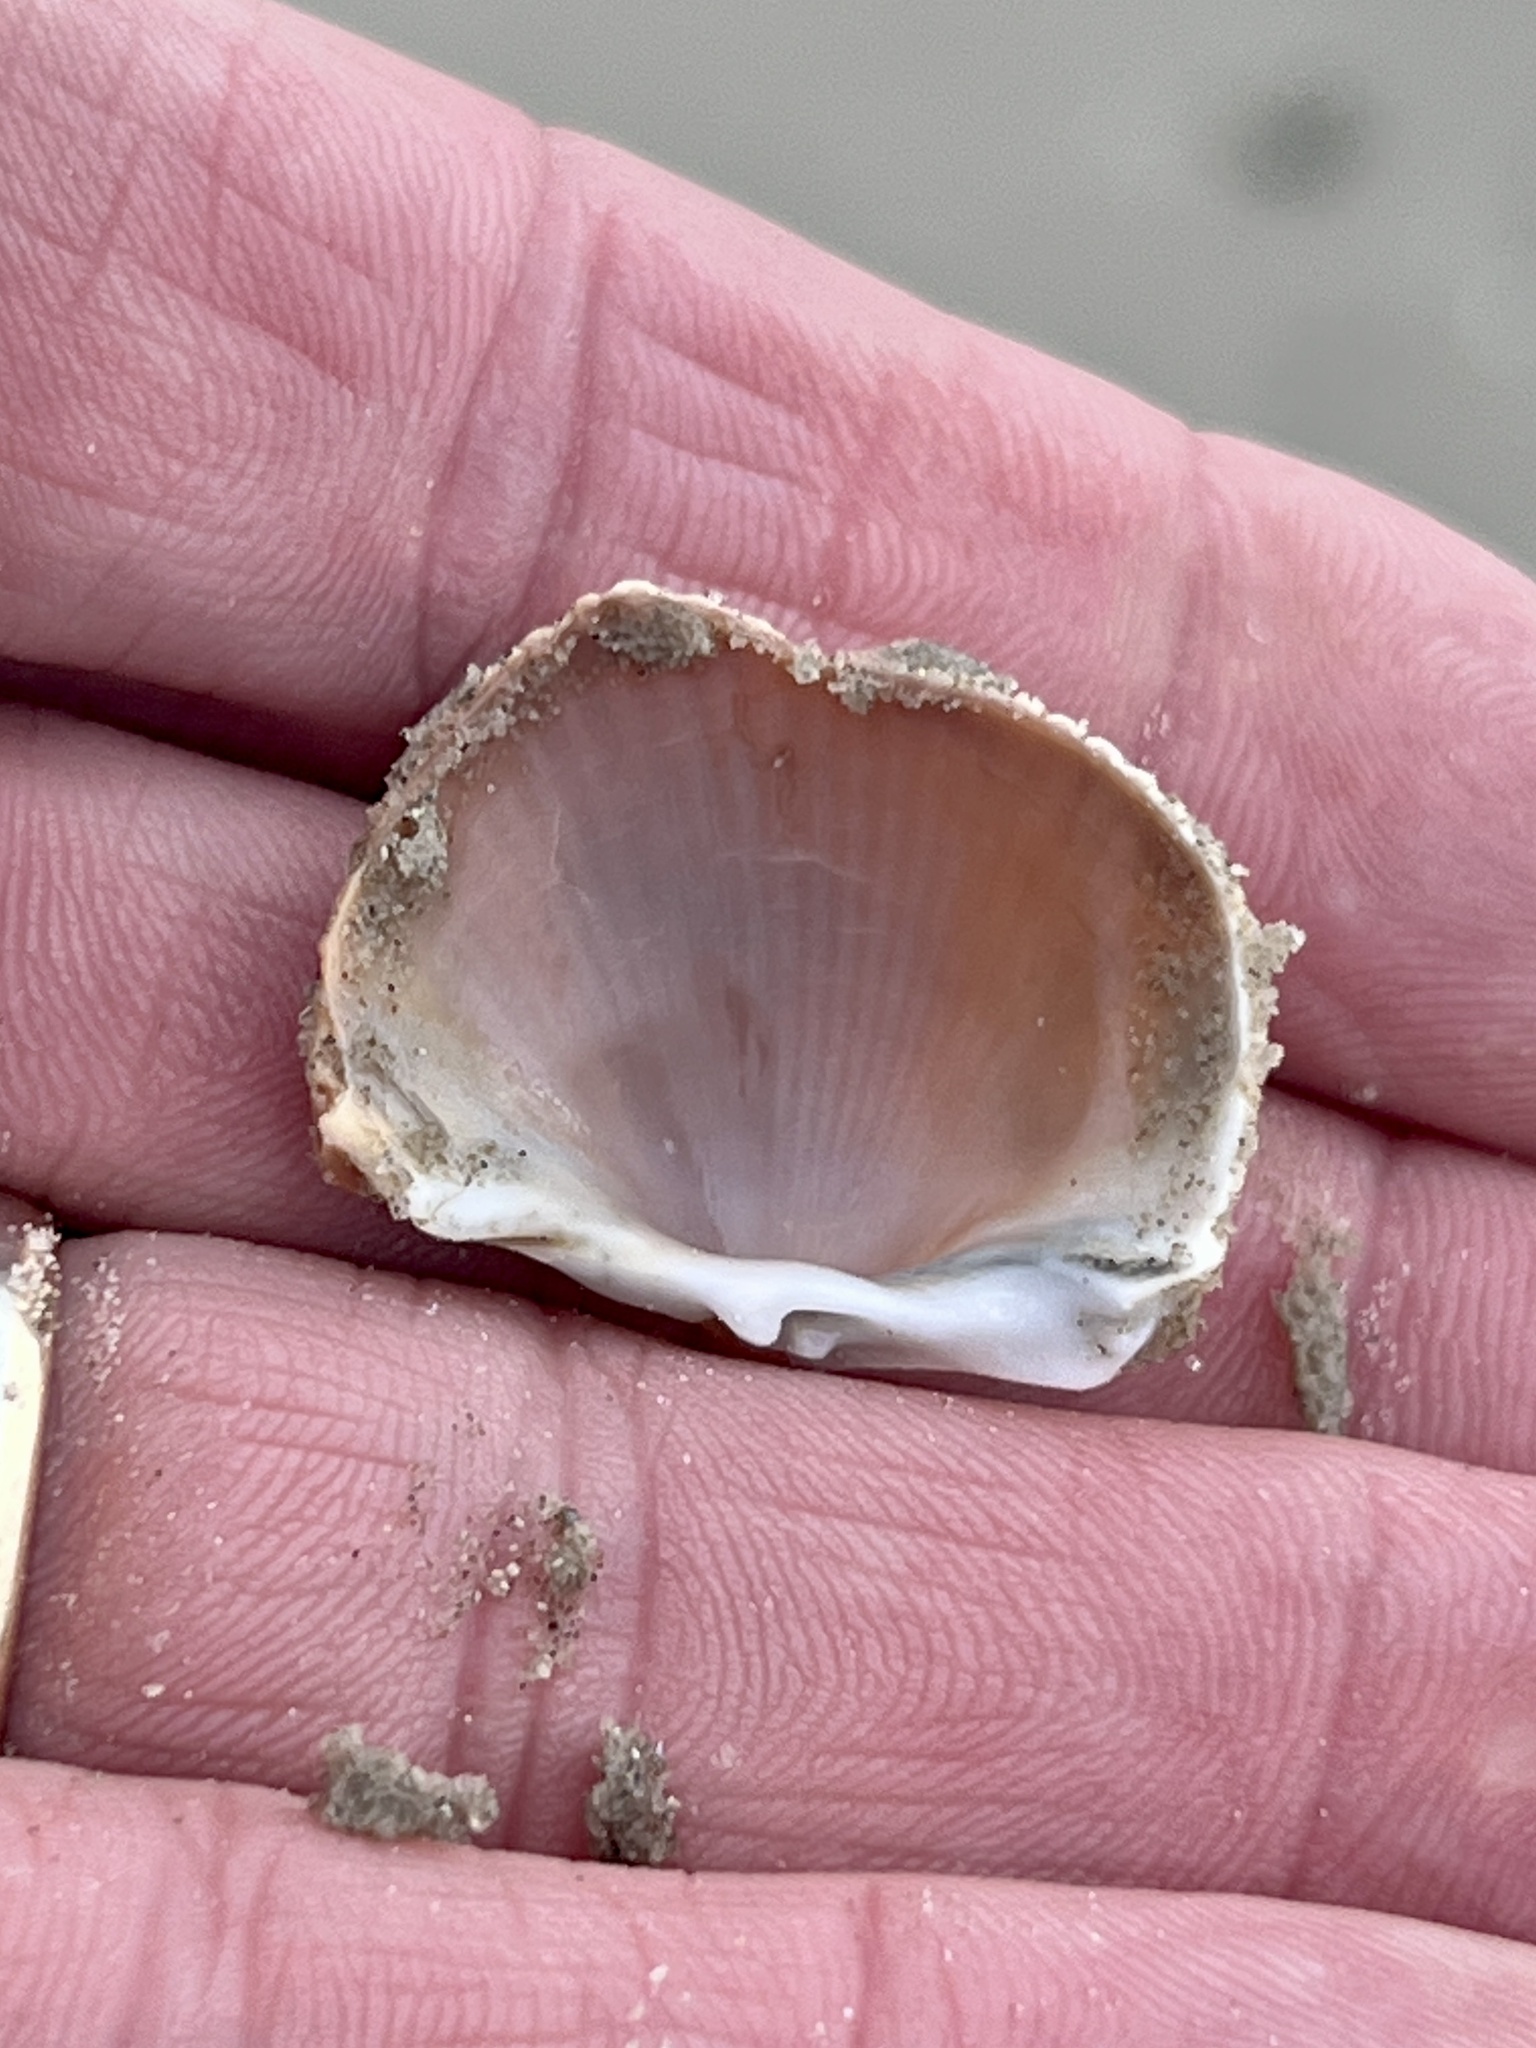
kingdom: Animalia
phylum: Mollusca
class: Bivalvia
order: Cardiida
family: Cardiidae
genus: Dinocardium
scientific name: Dinocardium robustum
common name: Atlantic giant cockle
